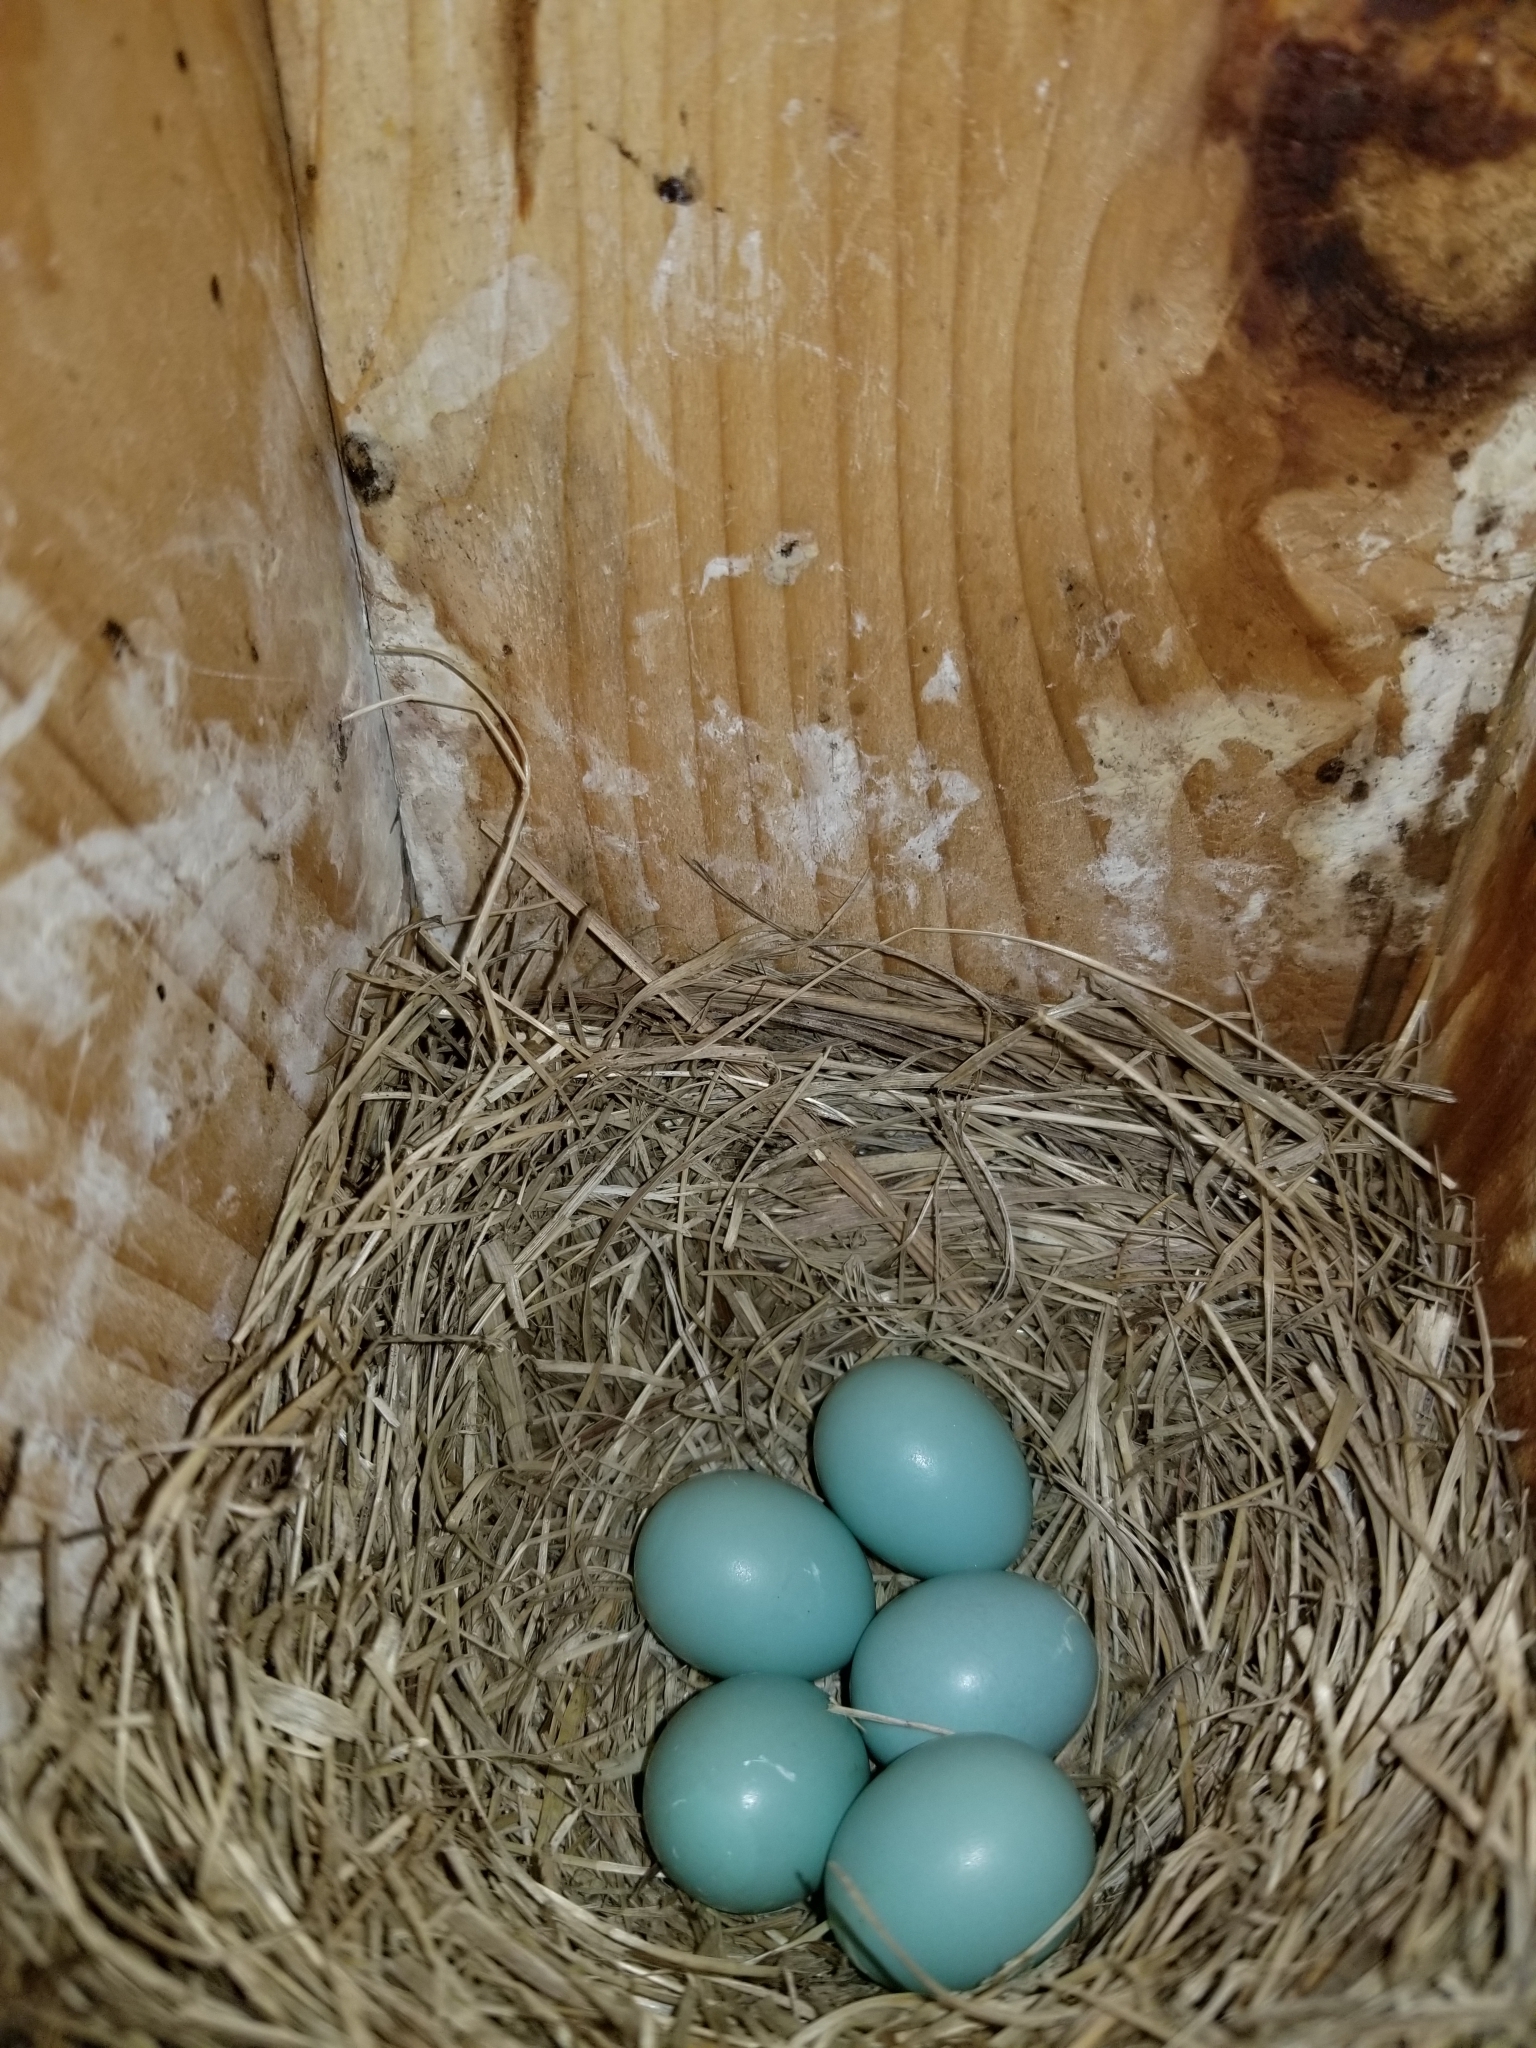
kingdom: Animalia
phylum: Chordata
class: Aves
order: Passeriformes
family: Turdidae
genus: Sialia
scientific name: Sialia sialis
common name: Eastern bluebird
